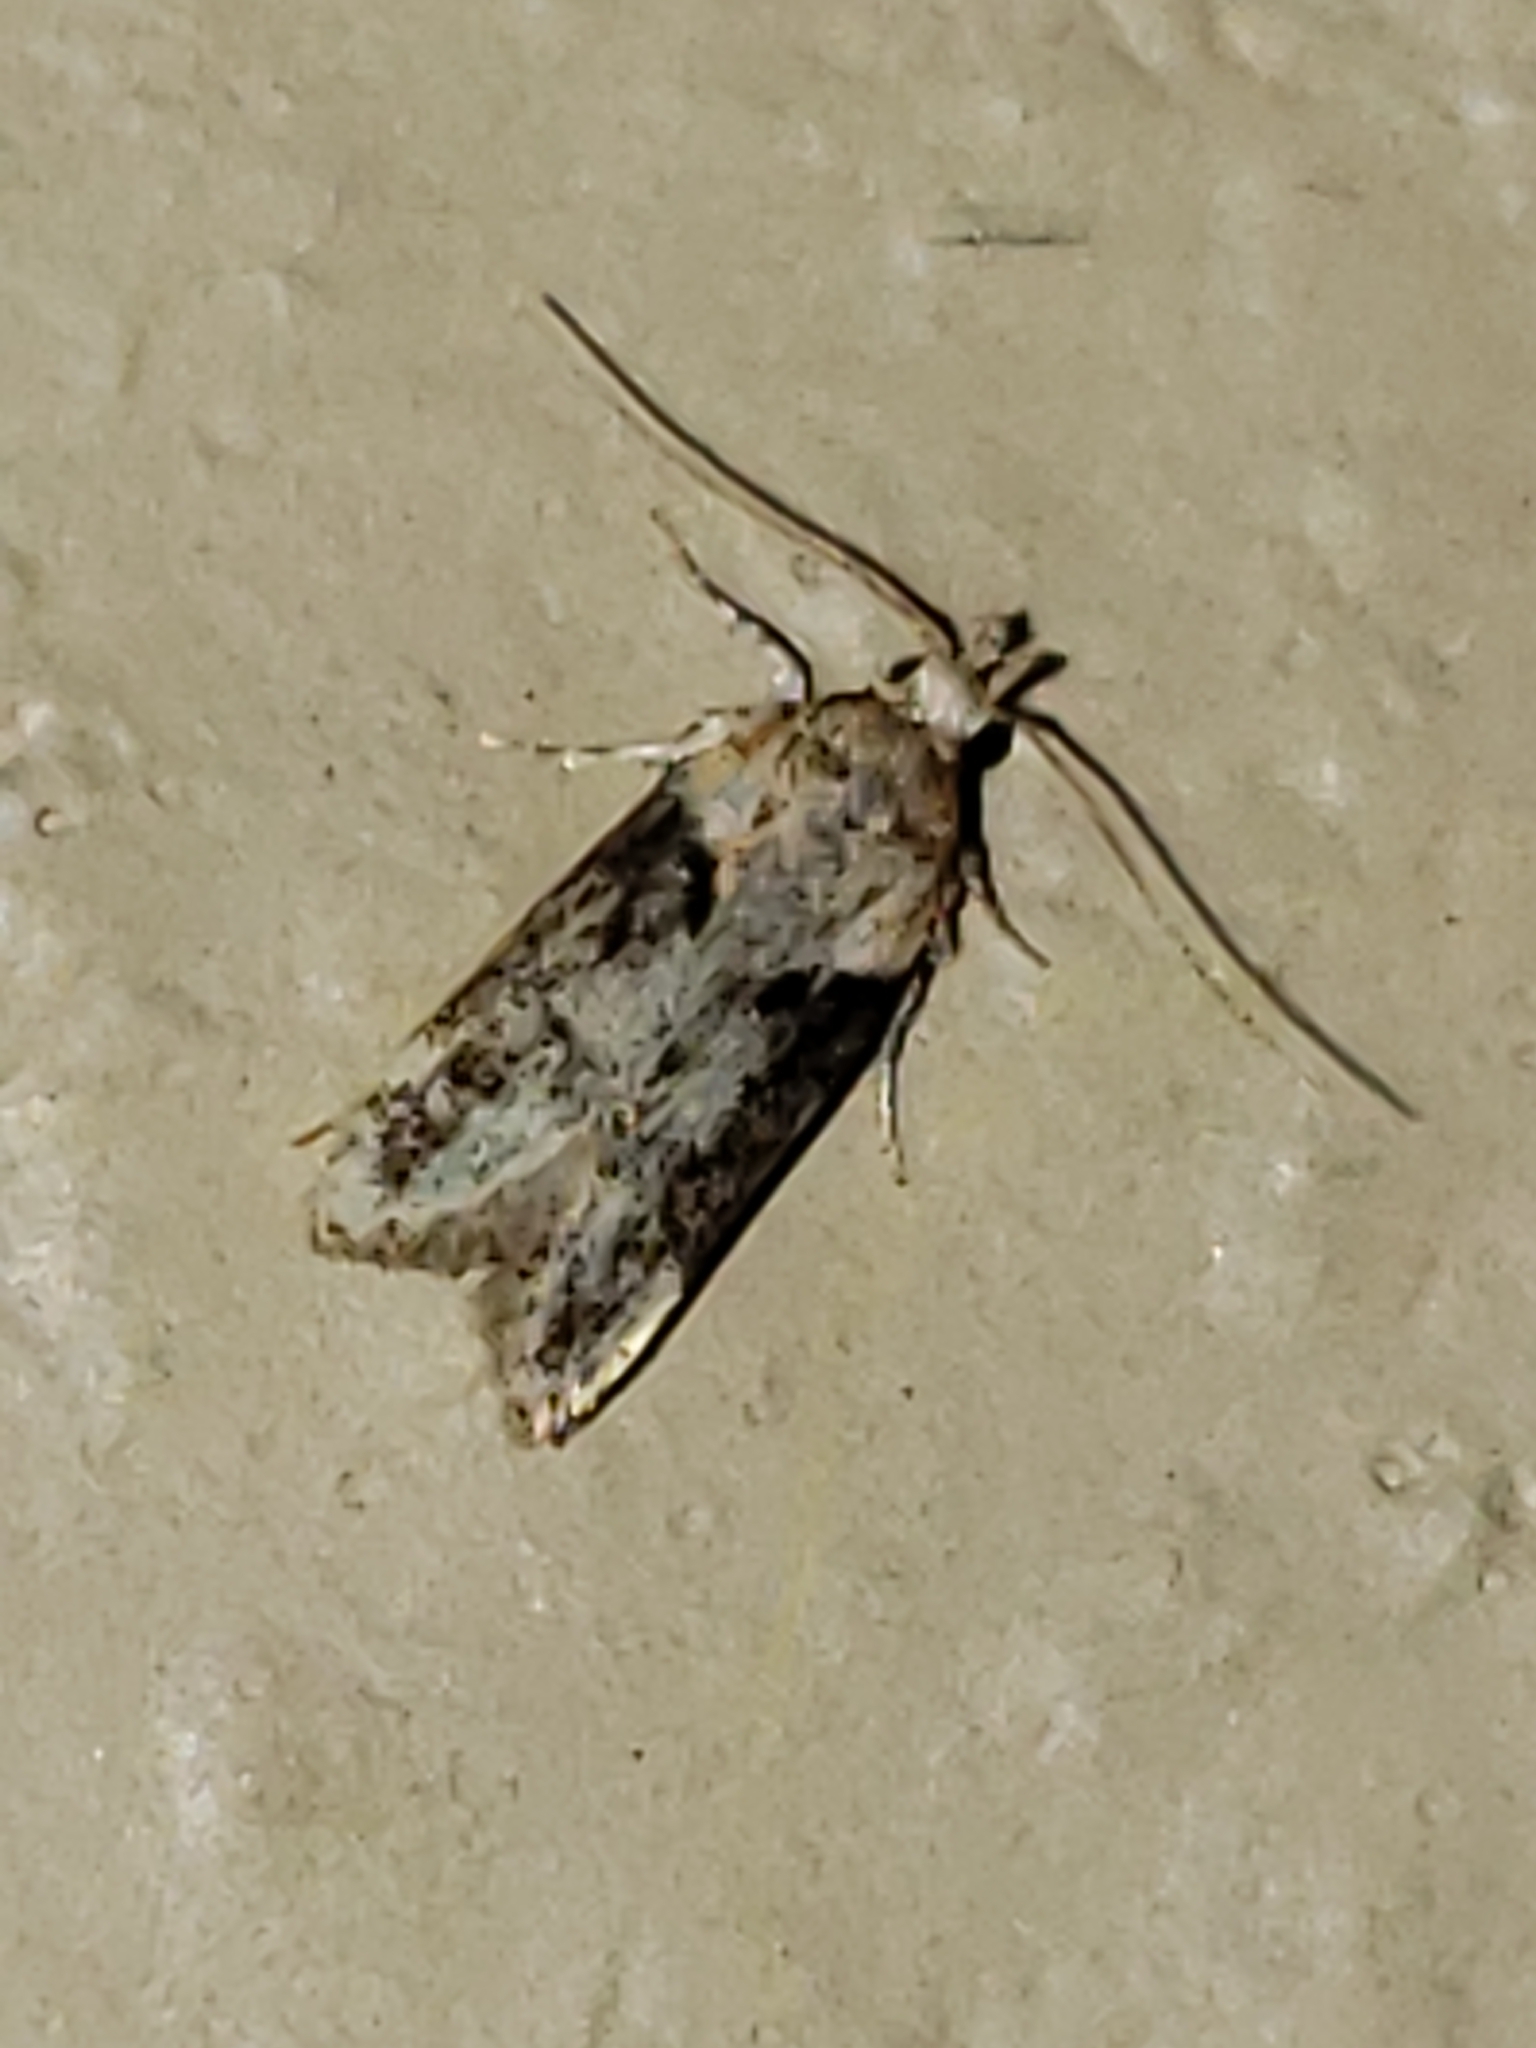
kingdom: Animalia
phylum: Arthropoda
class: Insecta
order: Lepidoptera
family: Gelechiidae
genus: Chionodes
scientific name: Chionodes mediofuscella
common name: Black-smudged chionodes moth
